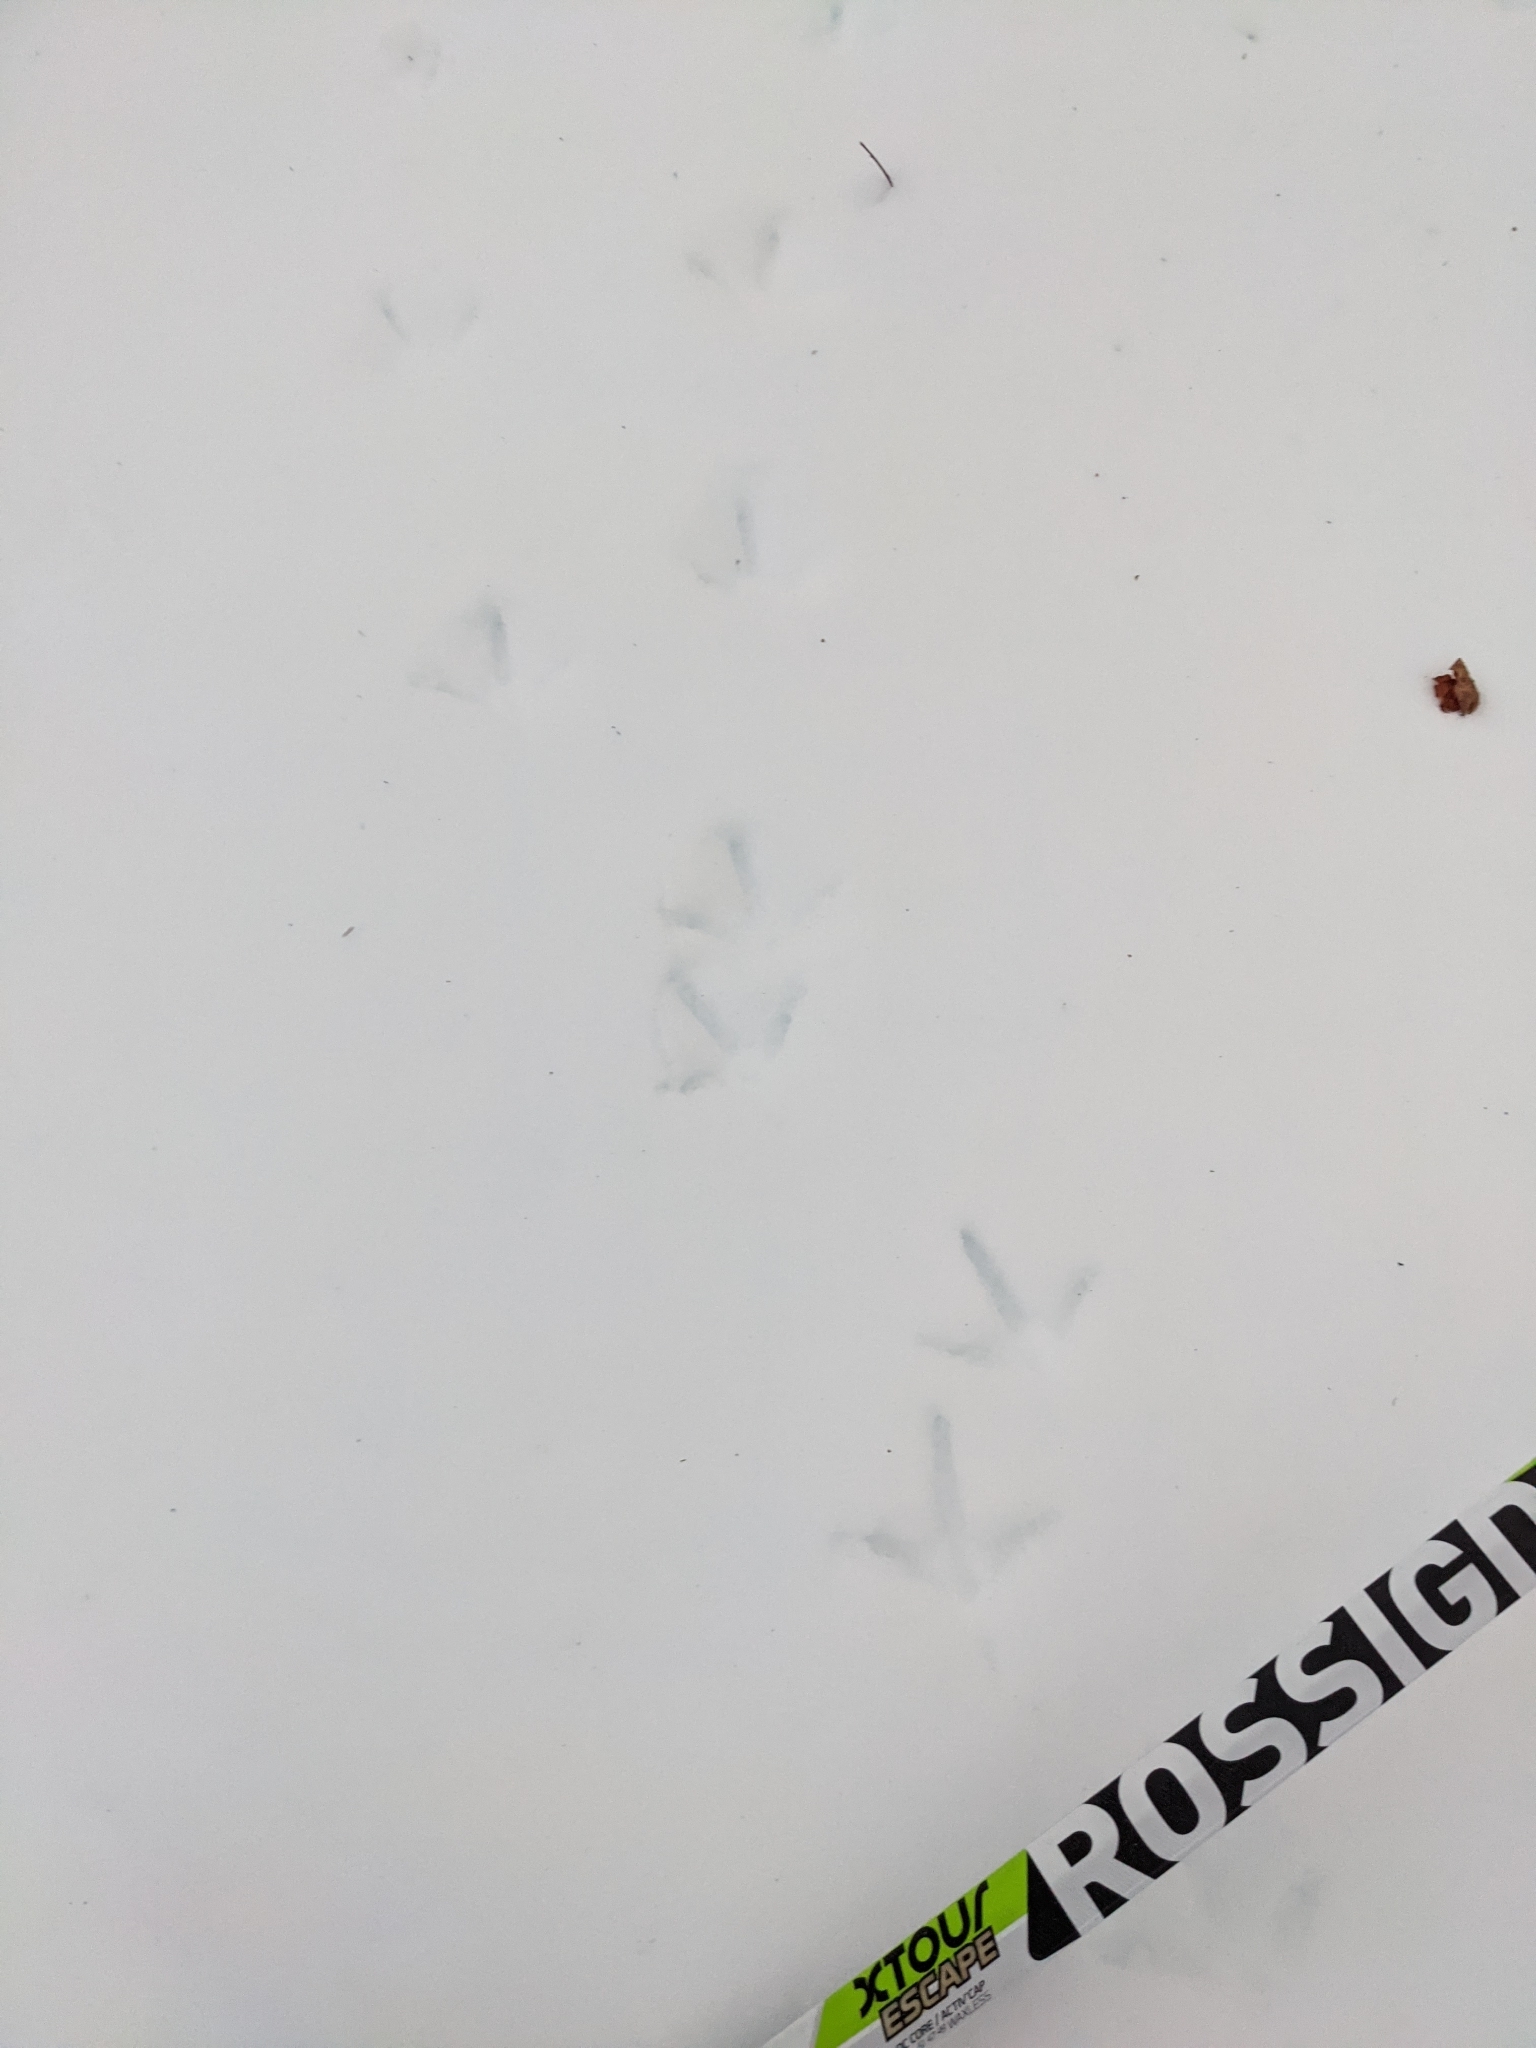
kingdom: Animalia
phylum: Chordata
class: Aves
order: Galliformes
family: Phasianidae
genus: Bonasa
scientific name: Bonasa umbellus
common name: Ruffed grouse
